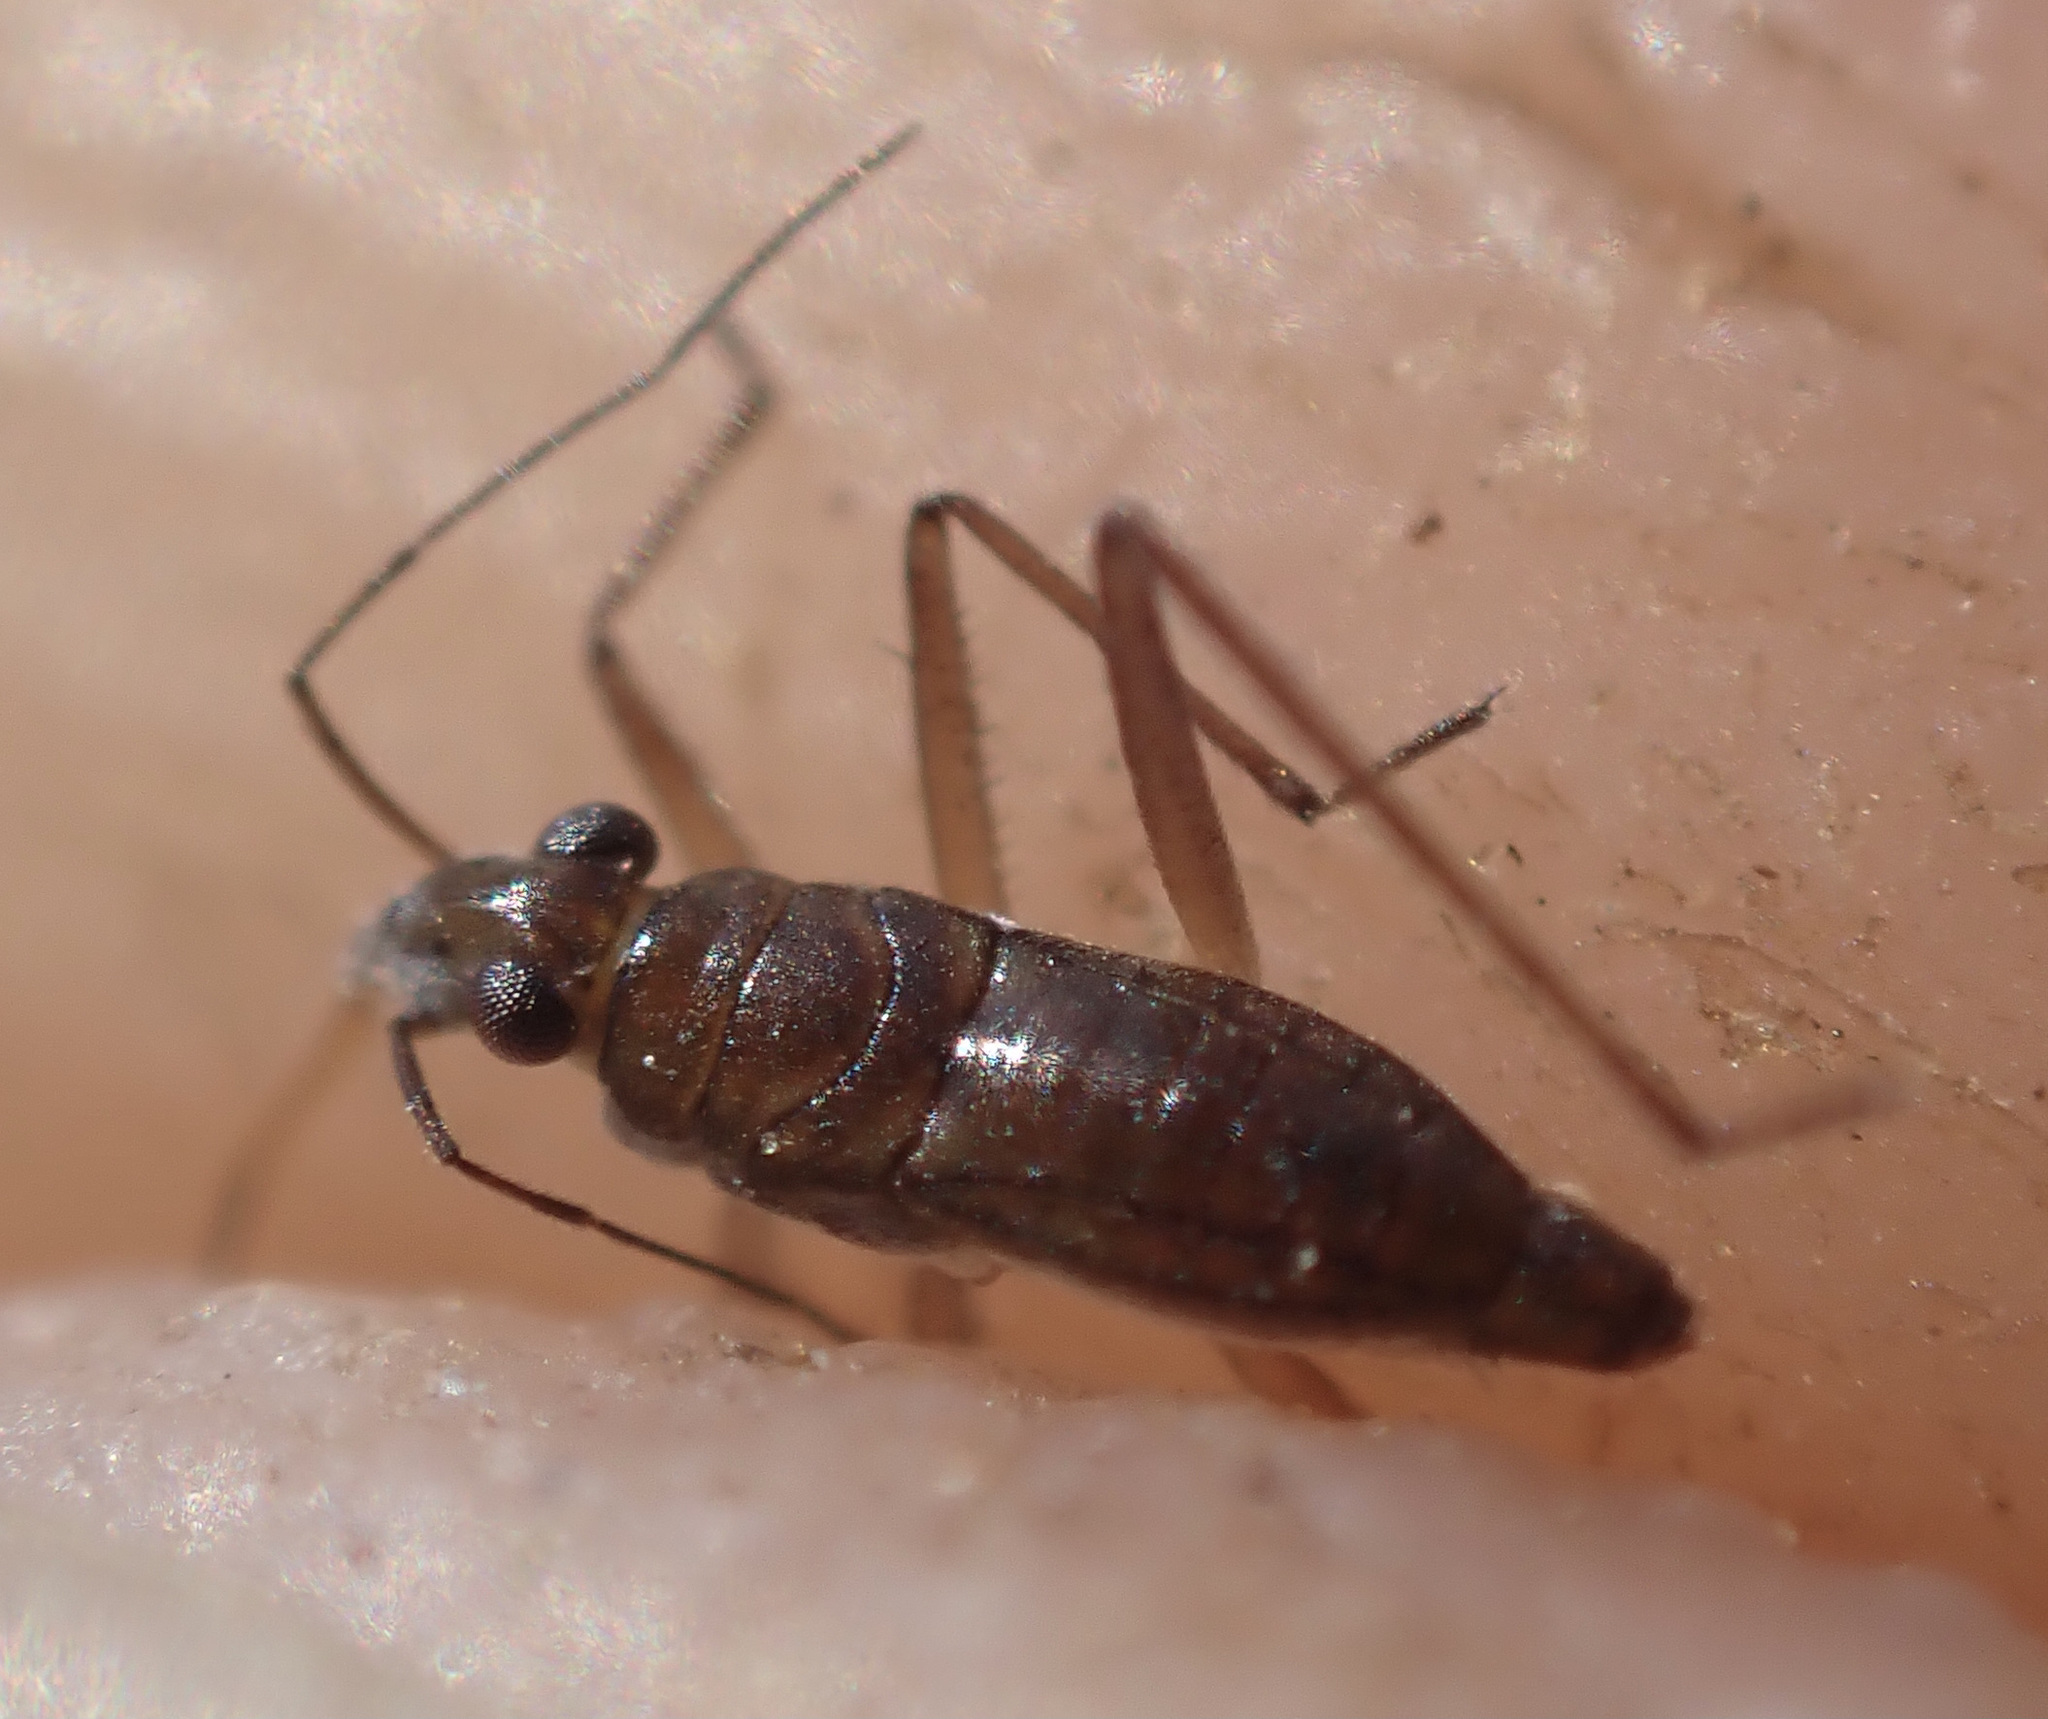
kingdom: Animalia
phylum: Arthropoda
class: Insecta
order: Hemiptera
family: Mesoveliidae
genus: Mesovelia
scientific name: Mesovelia vittigera
